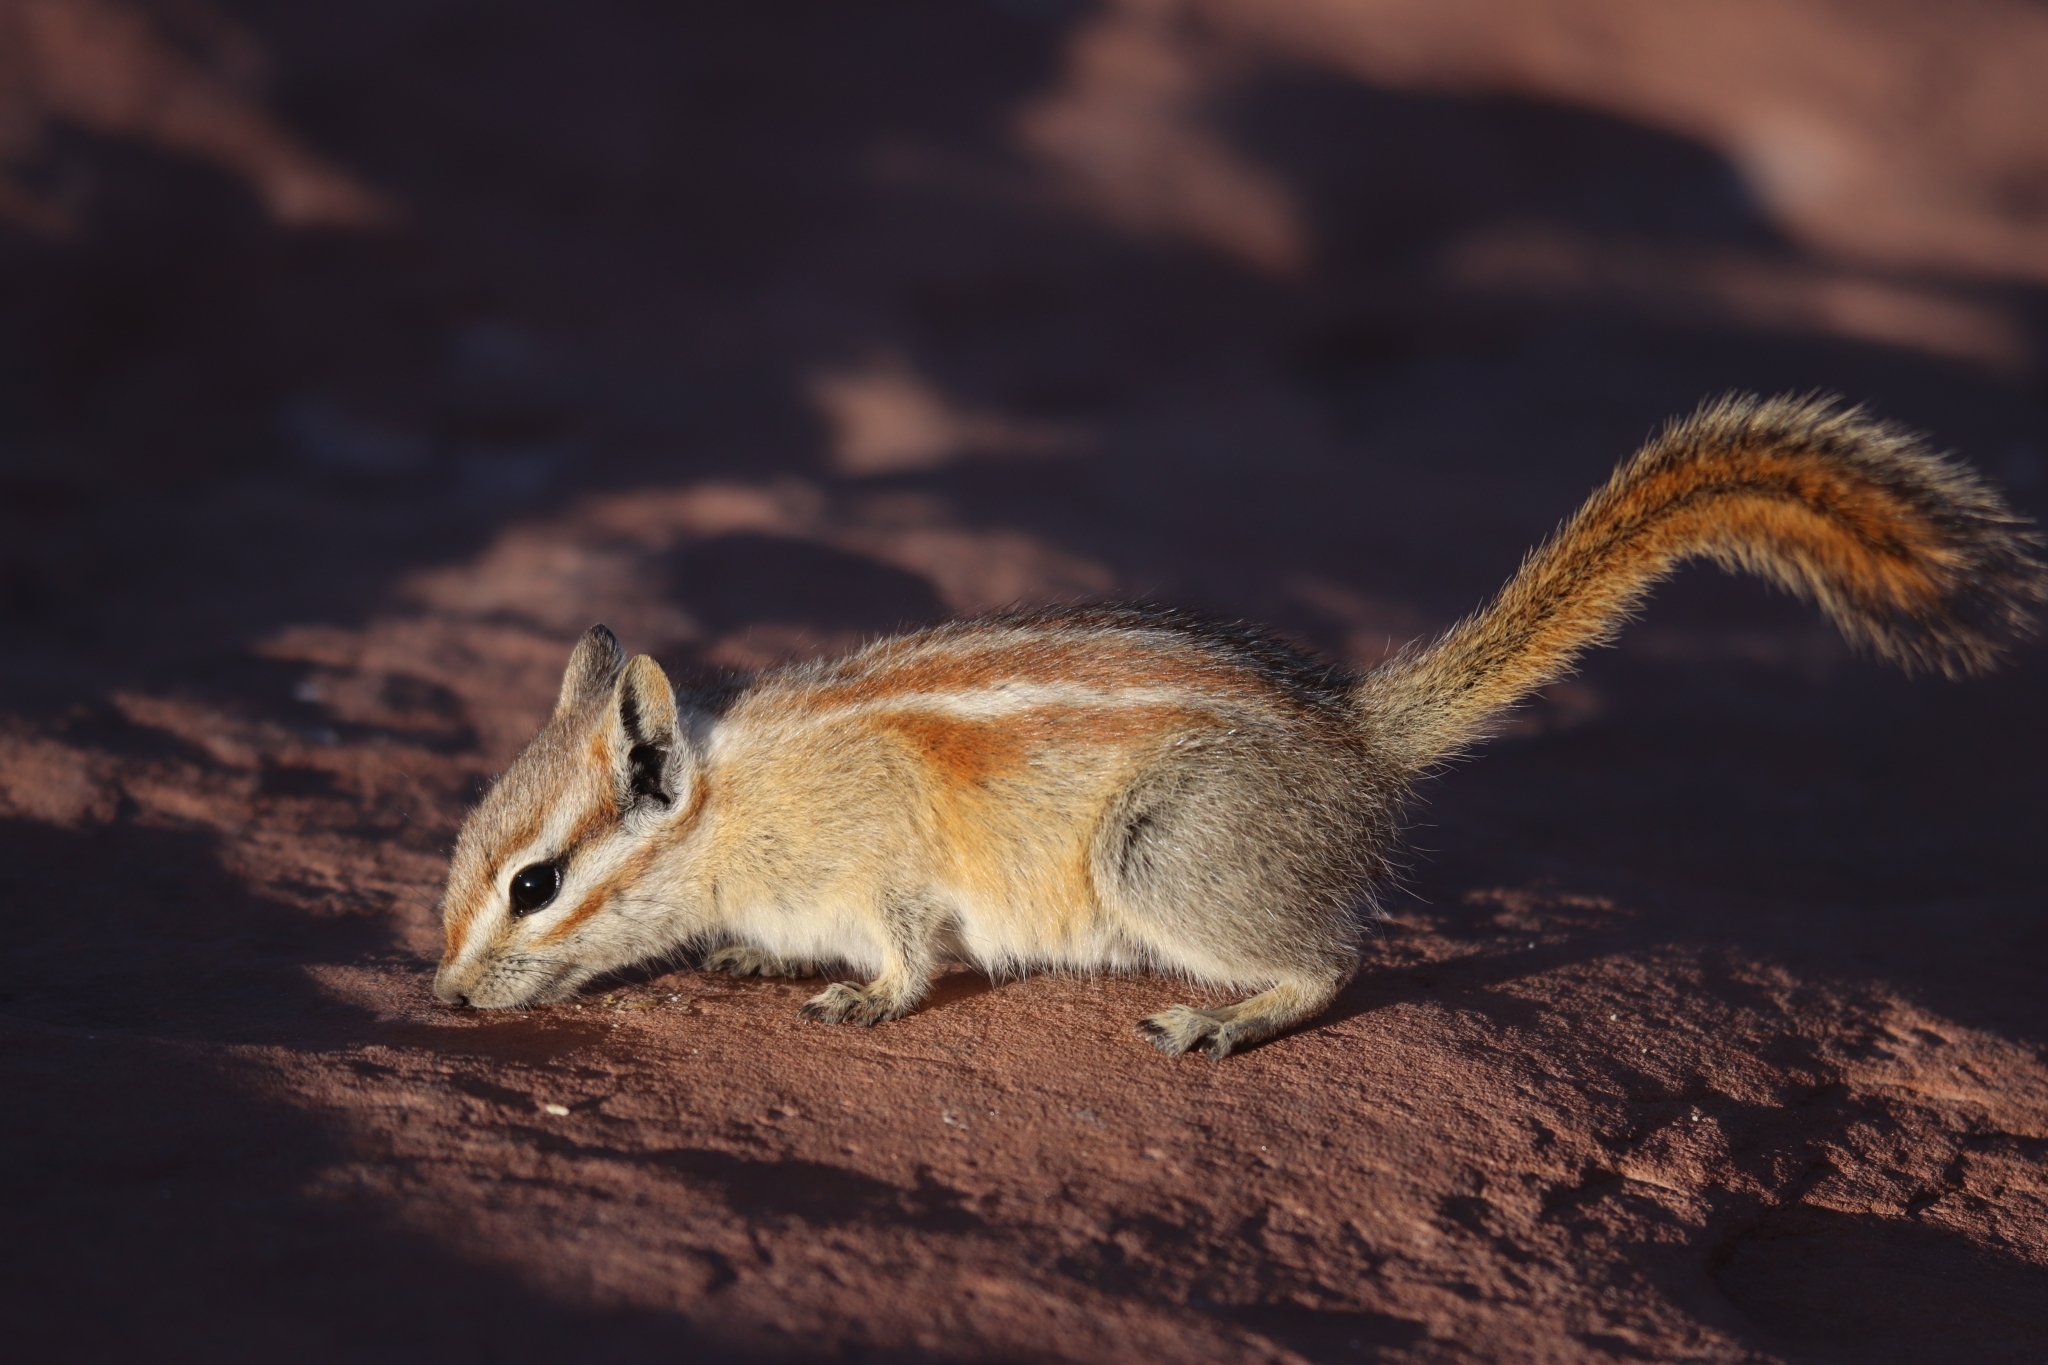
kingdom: Animalia
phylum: Chordata
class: Mammalia
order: Rodentia
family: Sciuridae
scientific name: Sciuridae
